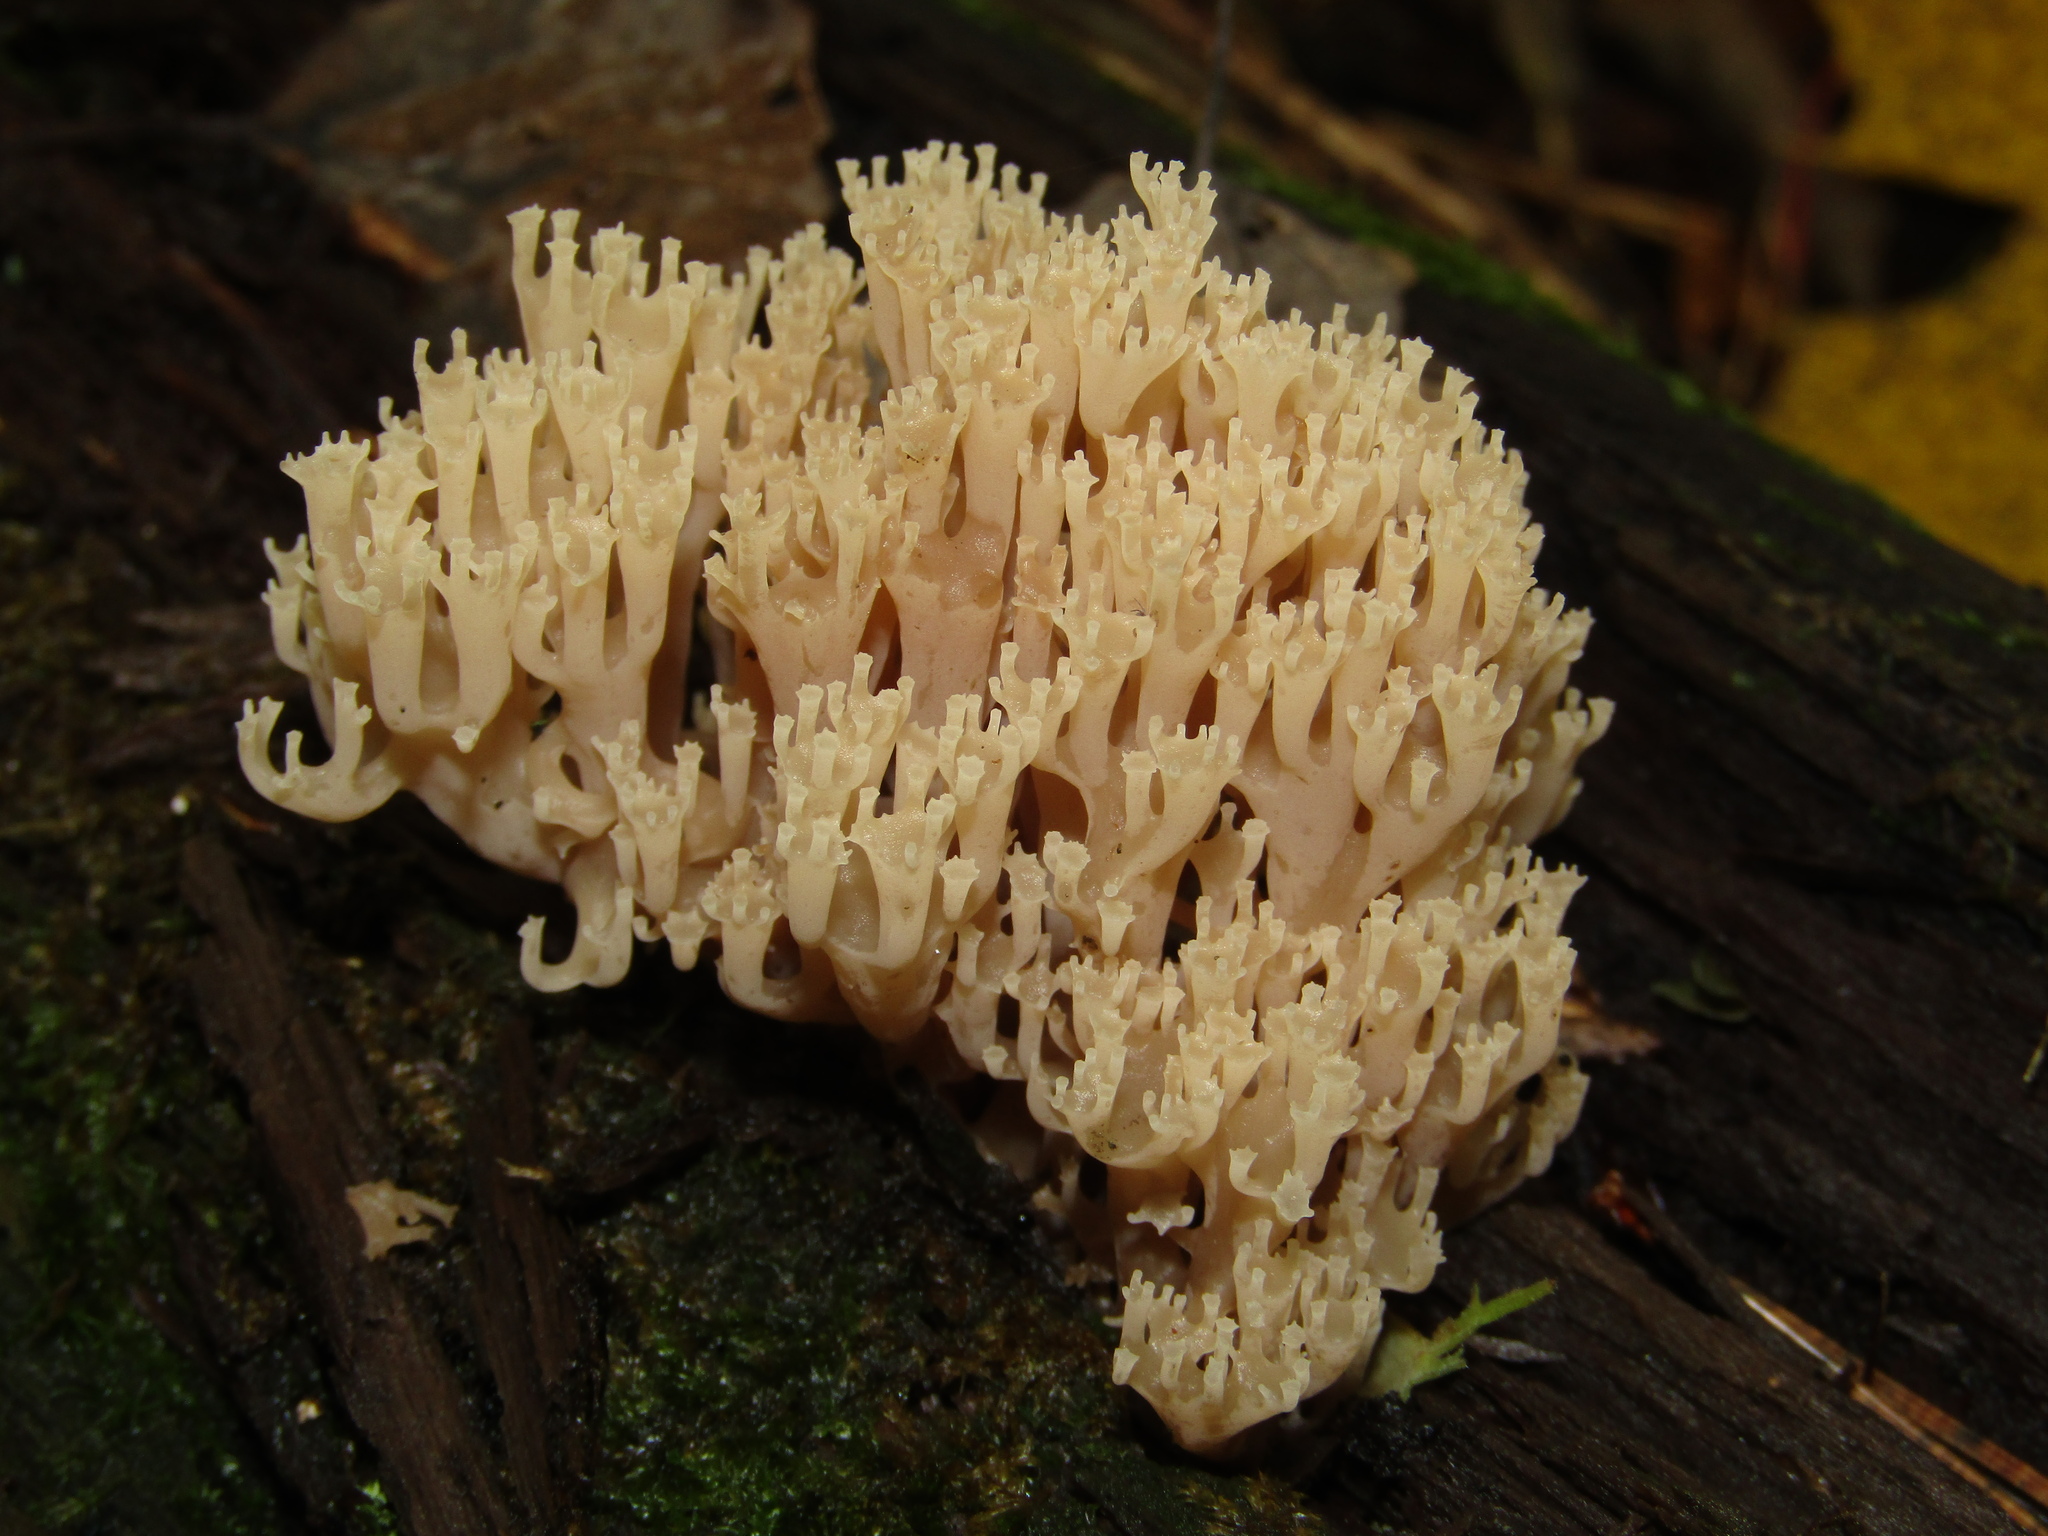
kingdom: Fungi
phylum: Basidiomycota
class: Agaricomycetes
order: Russulales
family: Auriscalpiaceae
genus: Artomyces
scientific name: Artomyces pyxidatus
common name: Crown-tipped coral fungus
